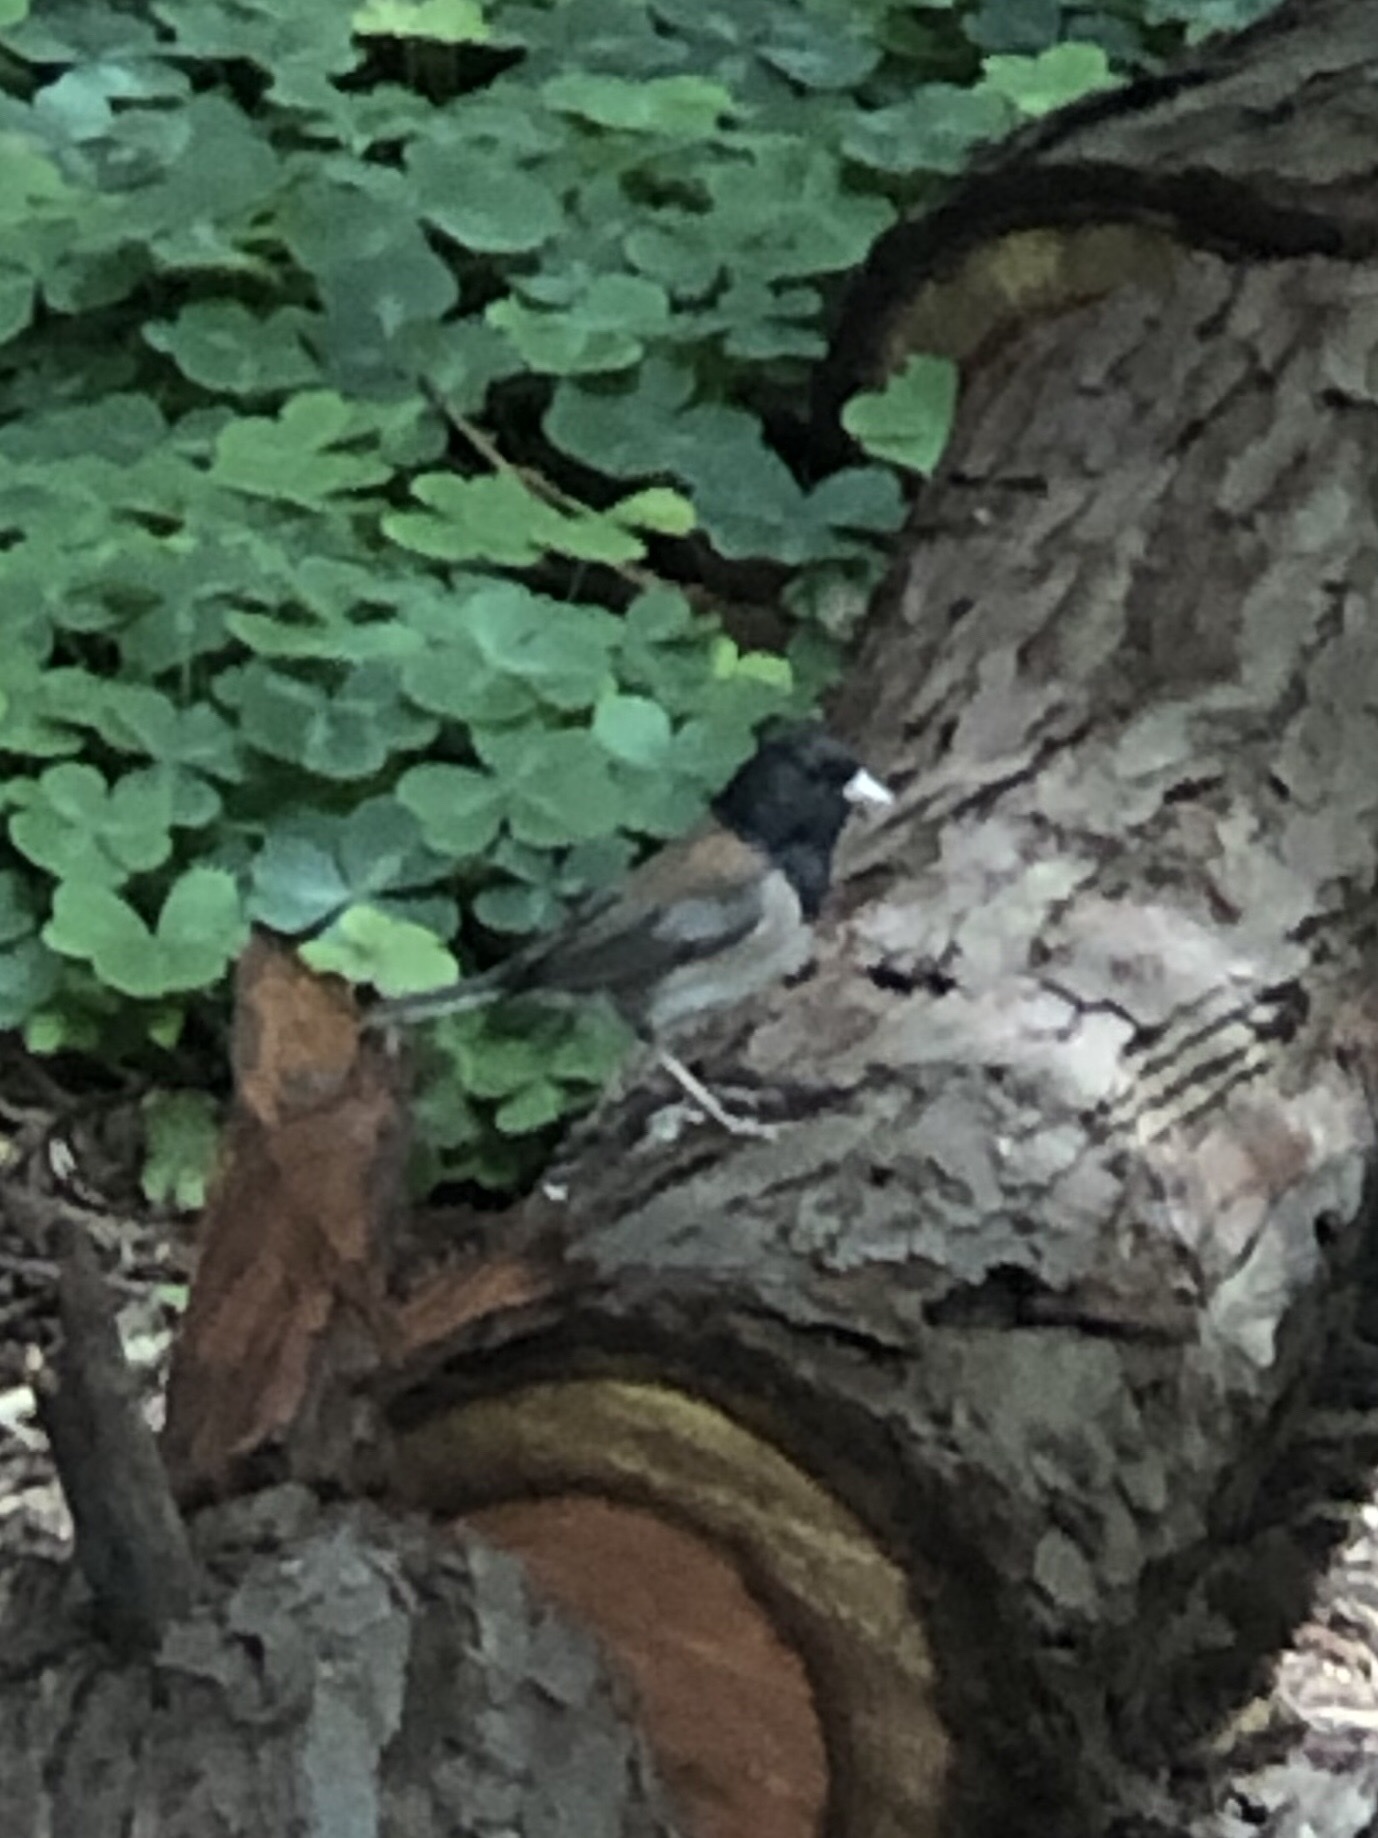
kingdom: Animalia
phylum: Chordata
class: Aves
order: Passeriformes
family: Passerellidae
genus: Junco
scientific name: Junco hyemalis
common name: Dark-eyed junco
